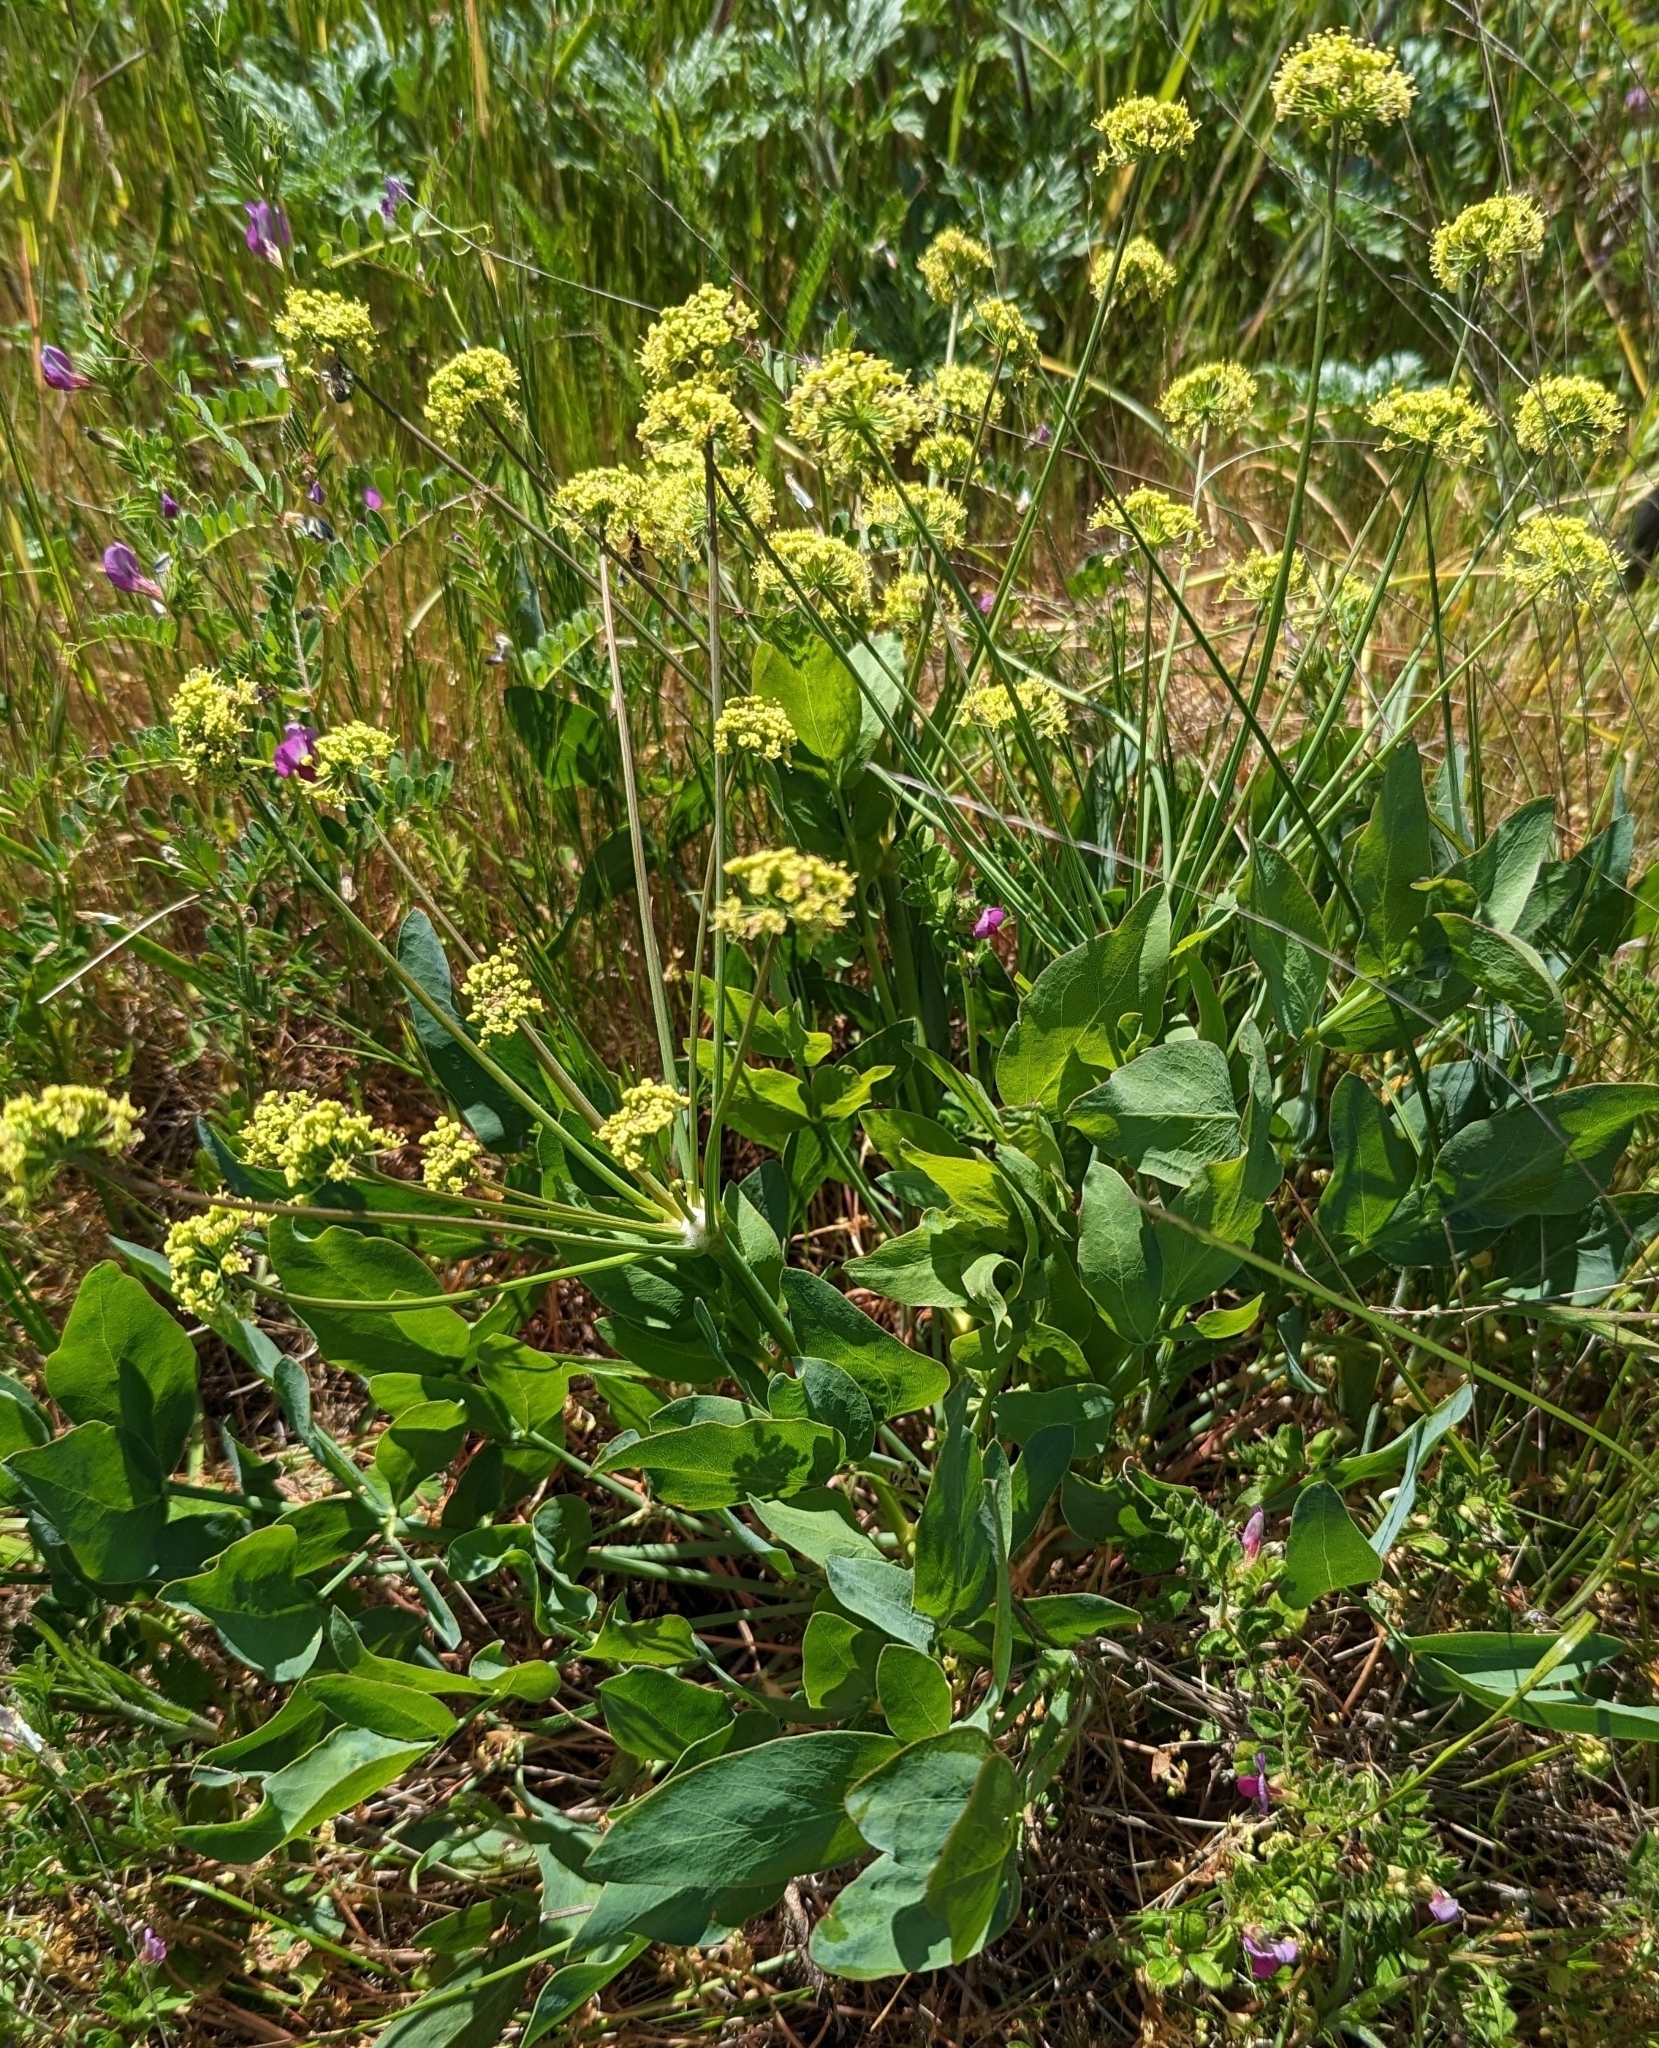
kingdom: Plantae
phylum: Tracheophyta
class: Magnoliopsida
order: Apiales
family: Apiaceae
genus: Lomatium
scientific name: Lomatium nudicaule
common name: Pestle lomatium
